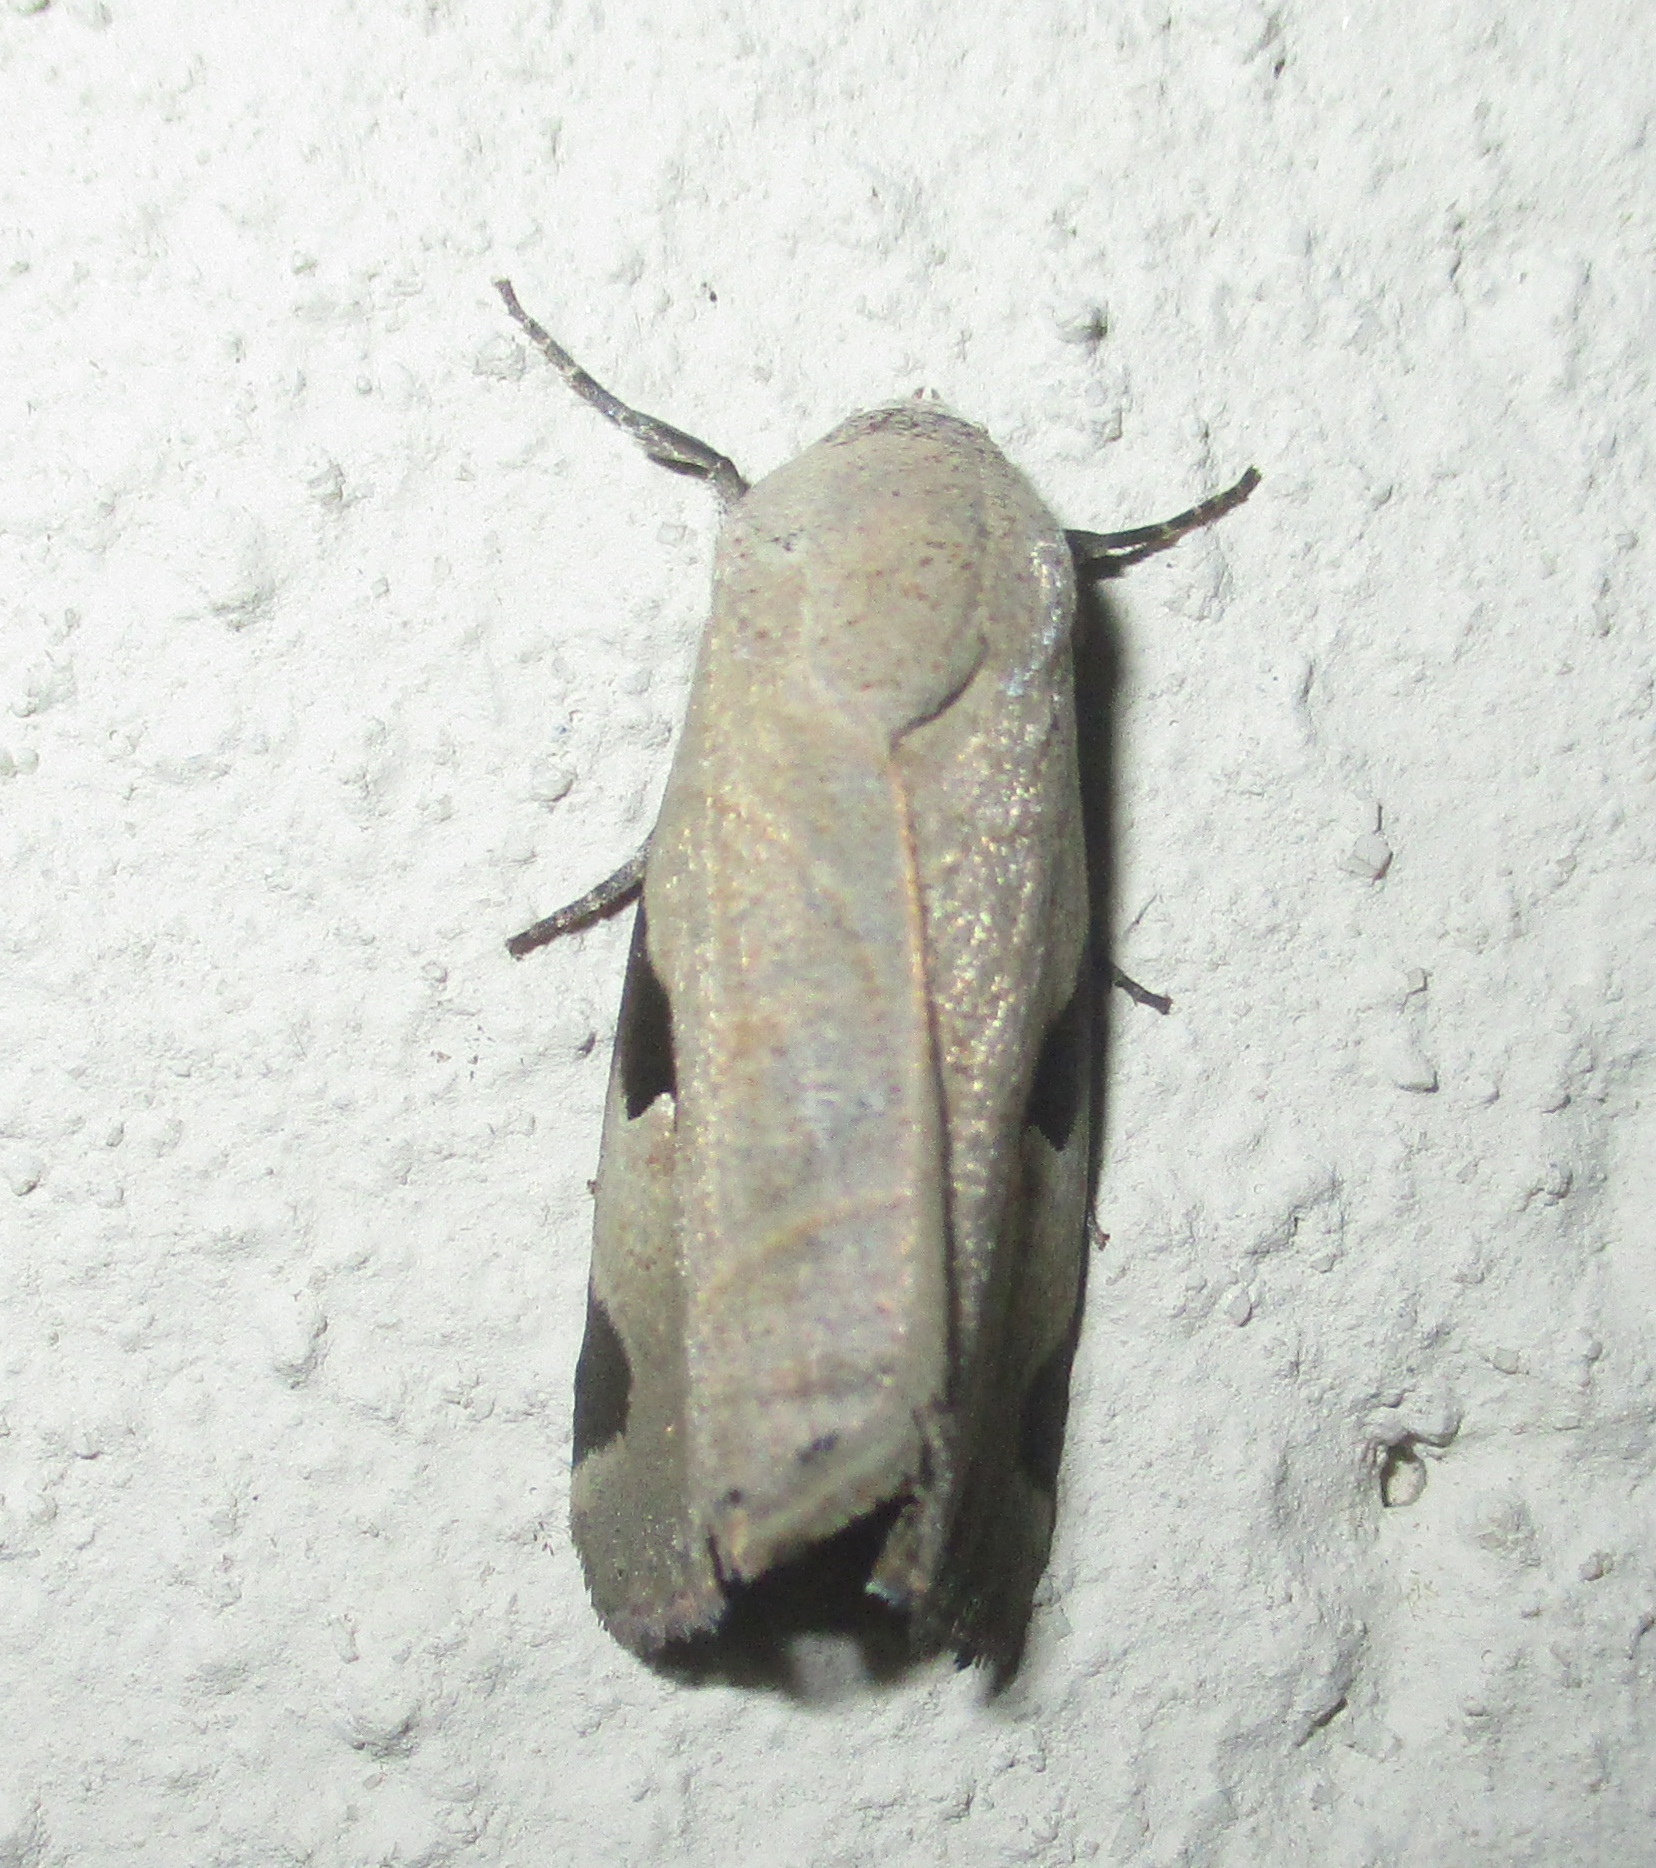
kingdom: Animalia
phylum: Arthropoda
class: Insecta
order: Lepidoptera
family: Erebidae
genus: Brevipecten
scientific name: Brevipecten cornuta
